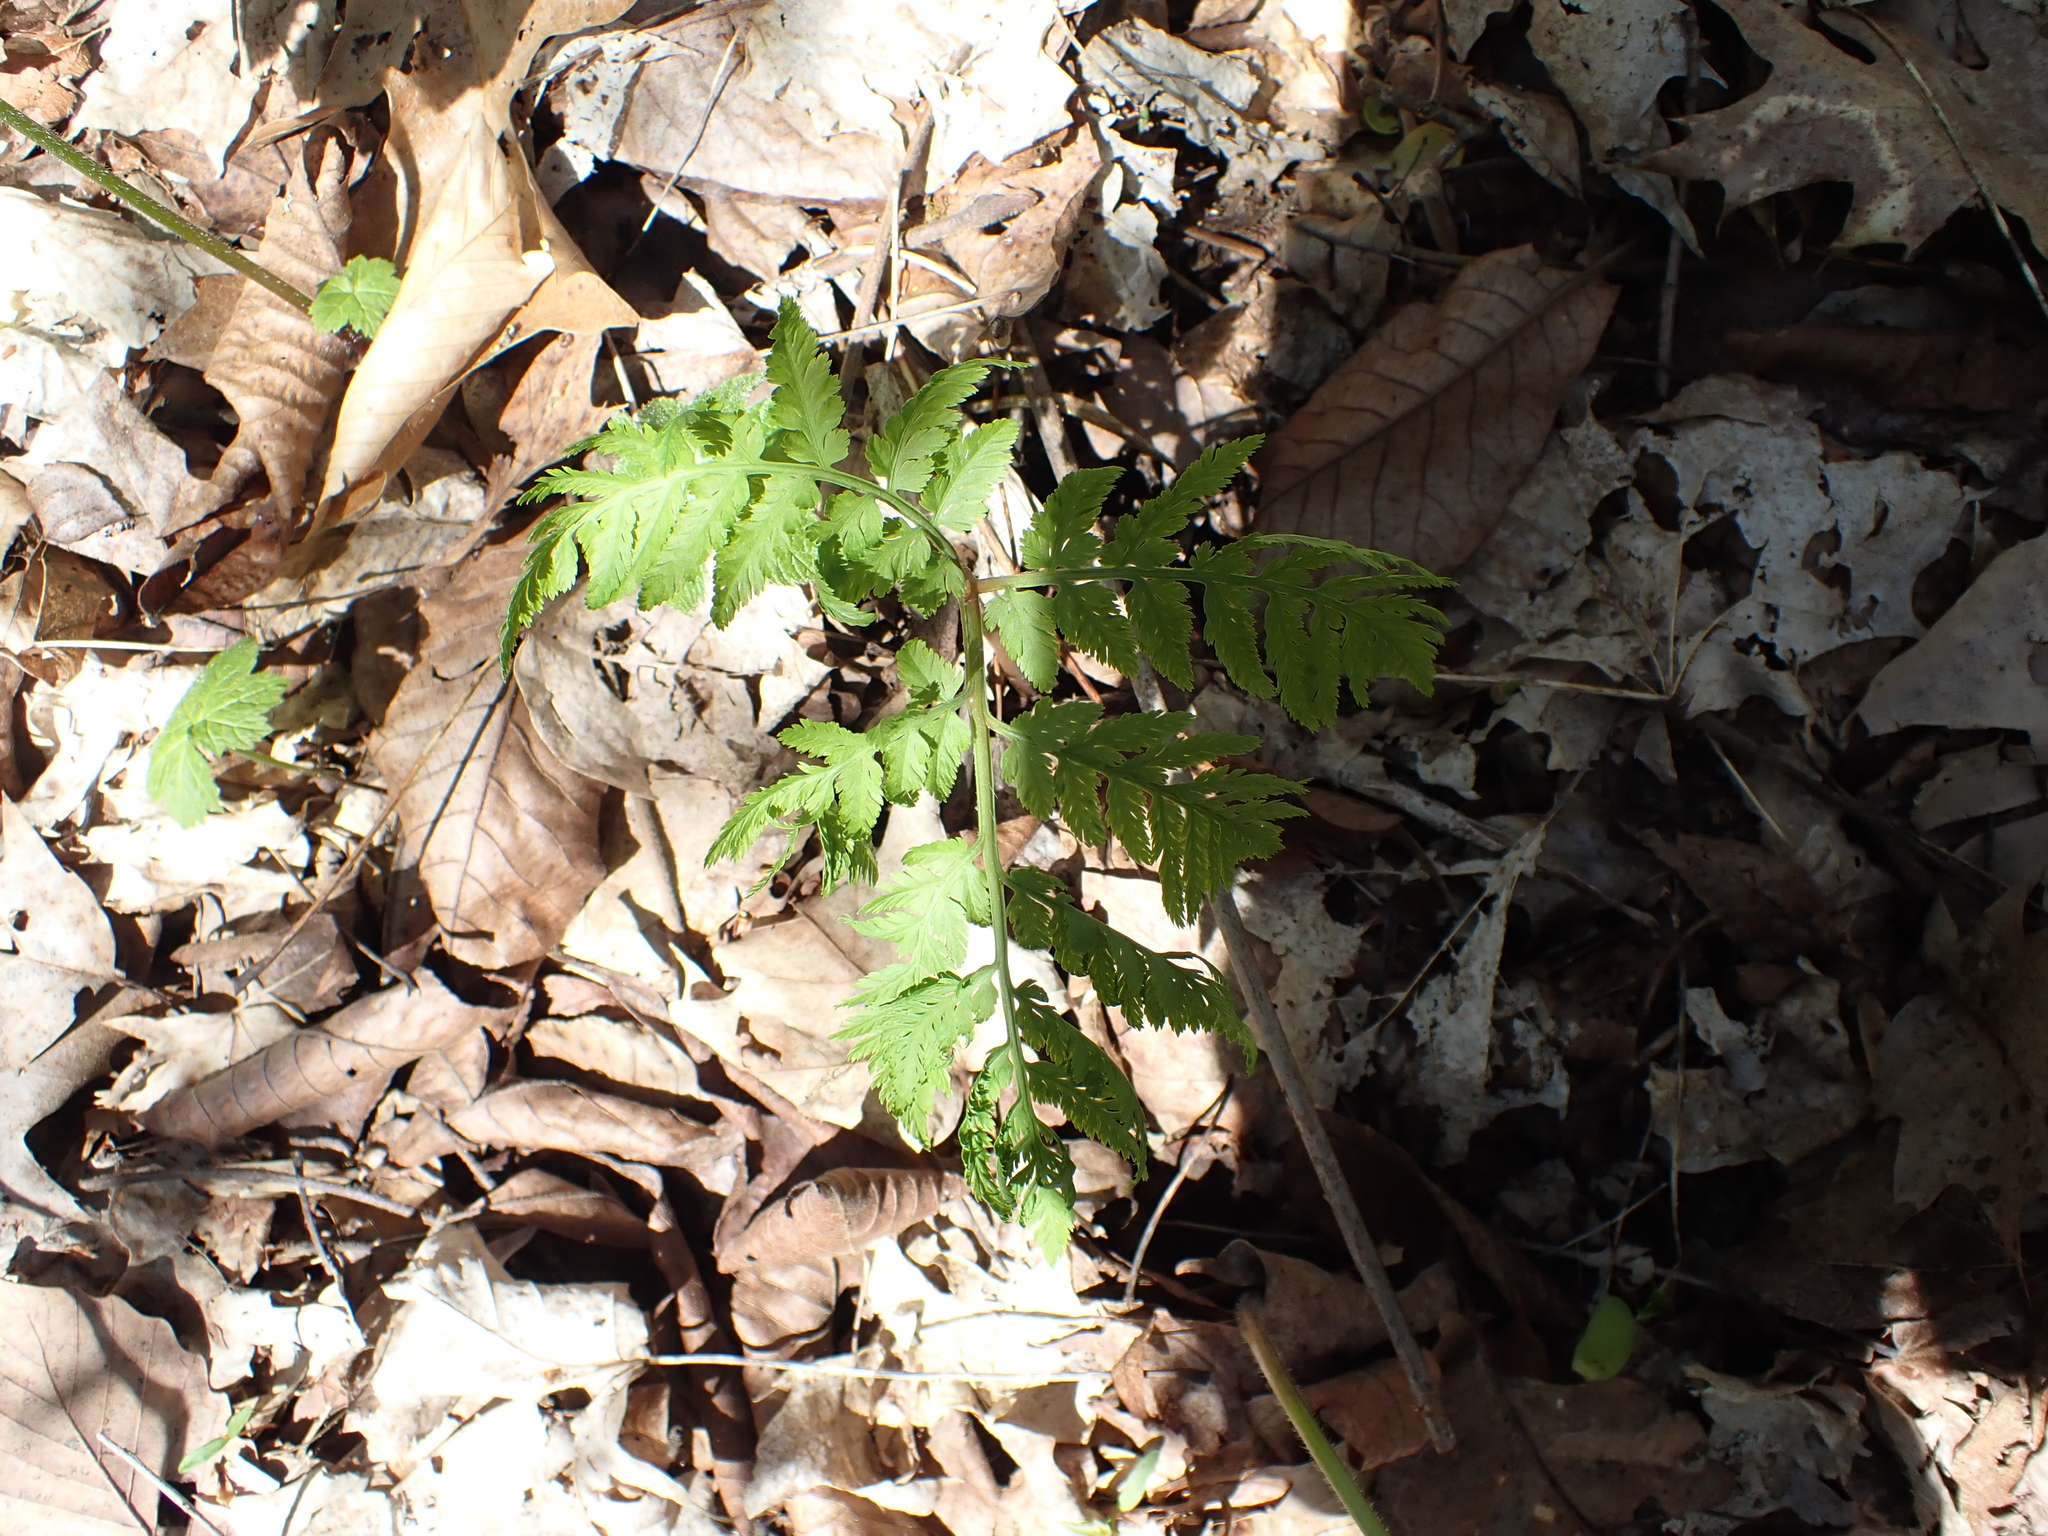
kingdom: Plantae
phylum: Tracheophyta
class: Polypodiopsida
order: Ophioglossales
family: Ophioglossaceae
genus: Botrypus
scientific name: Botrypus virginianus
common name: Common grapefern
